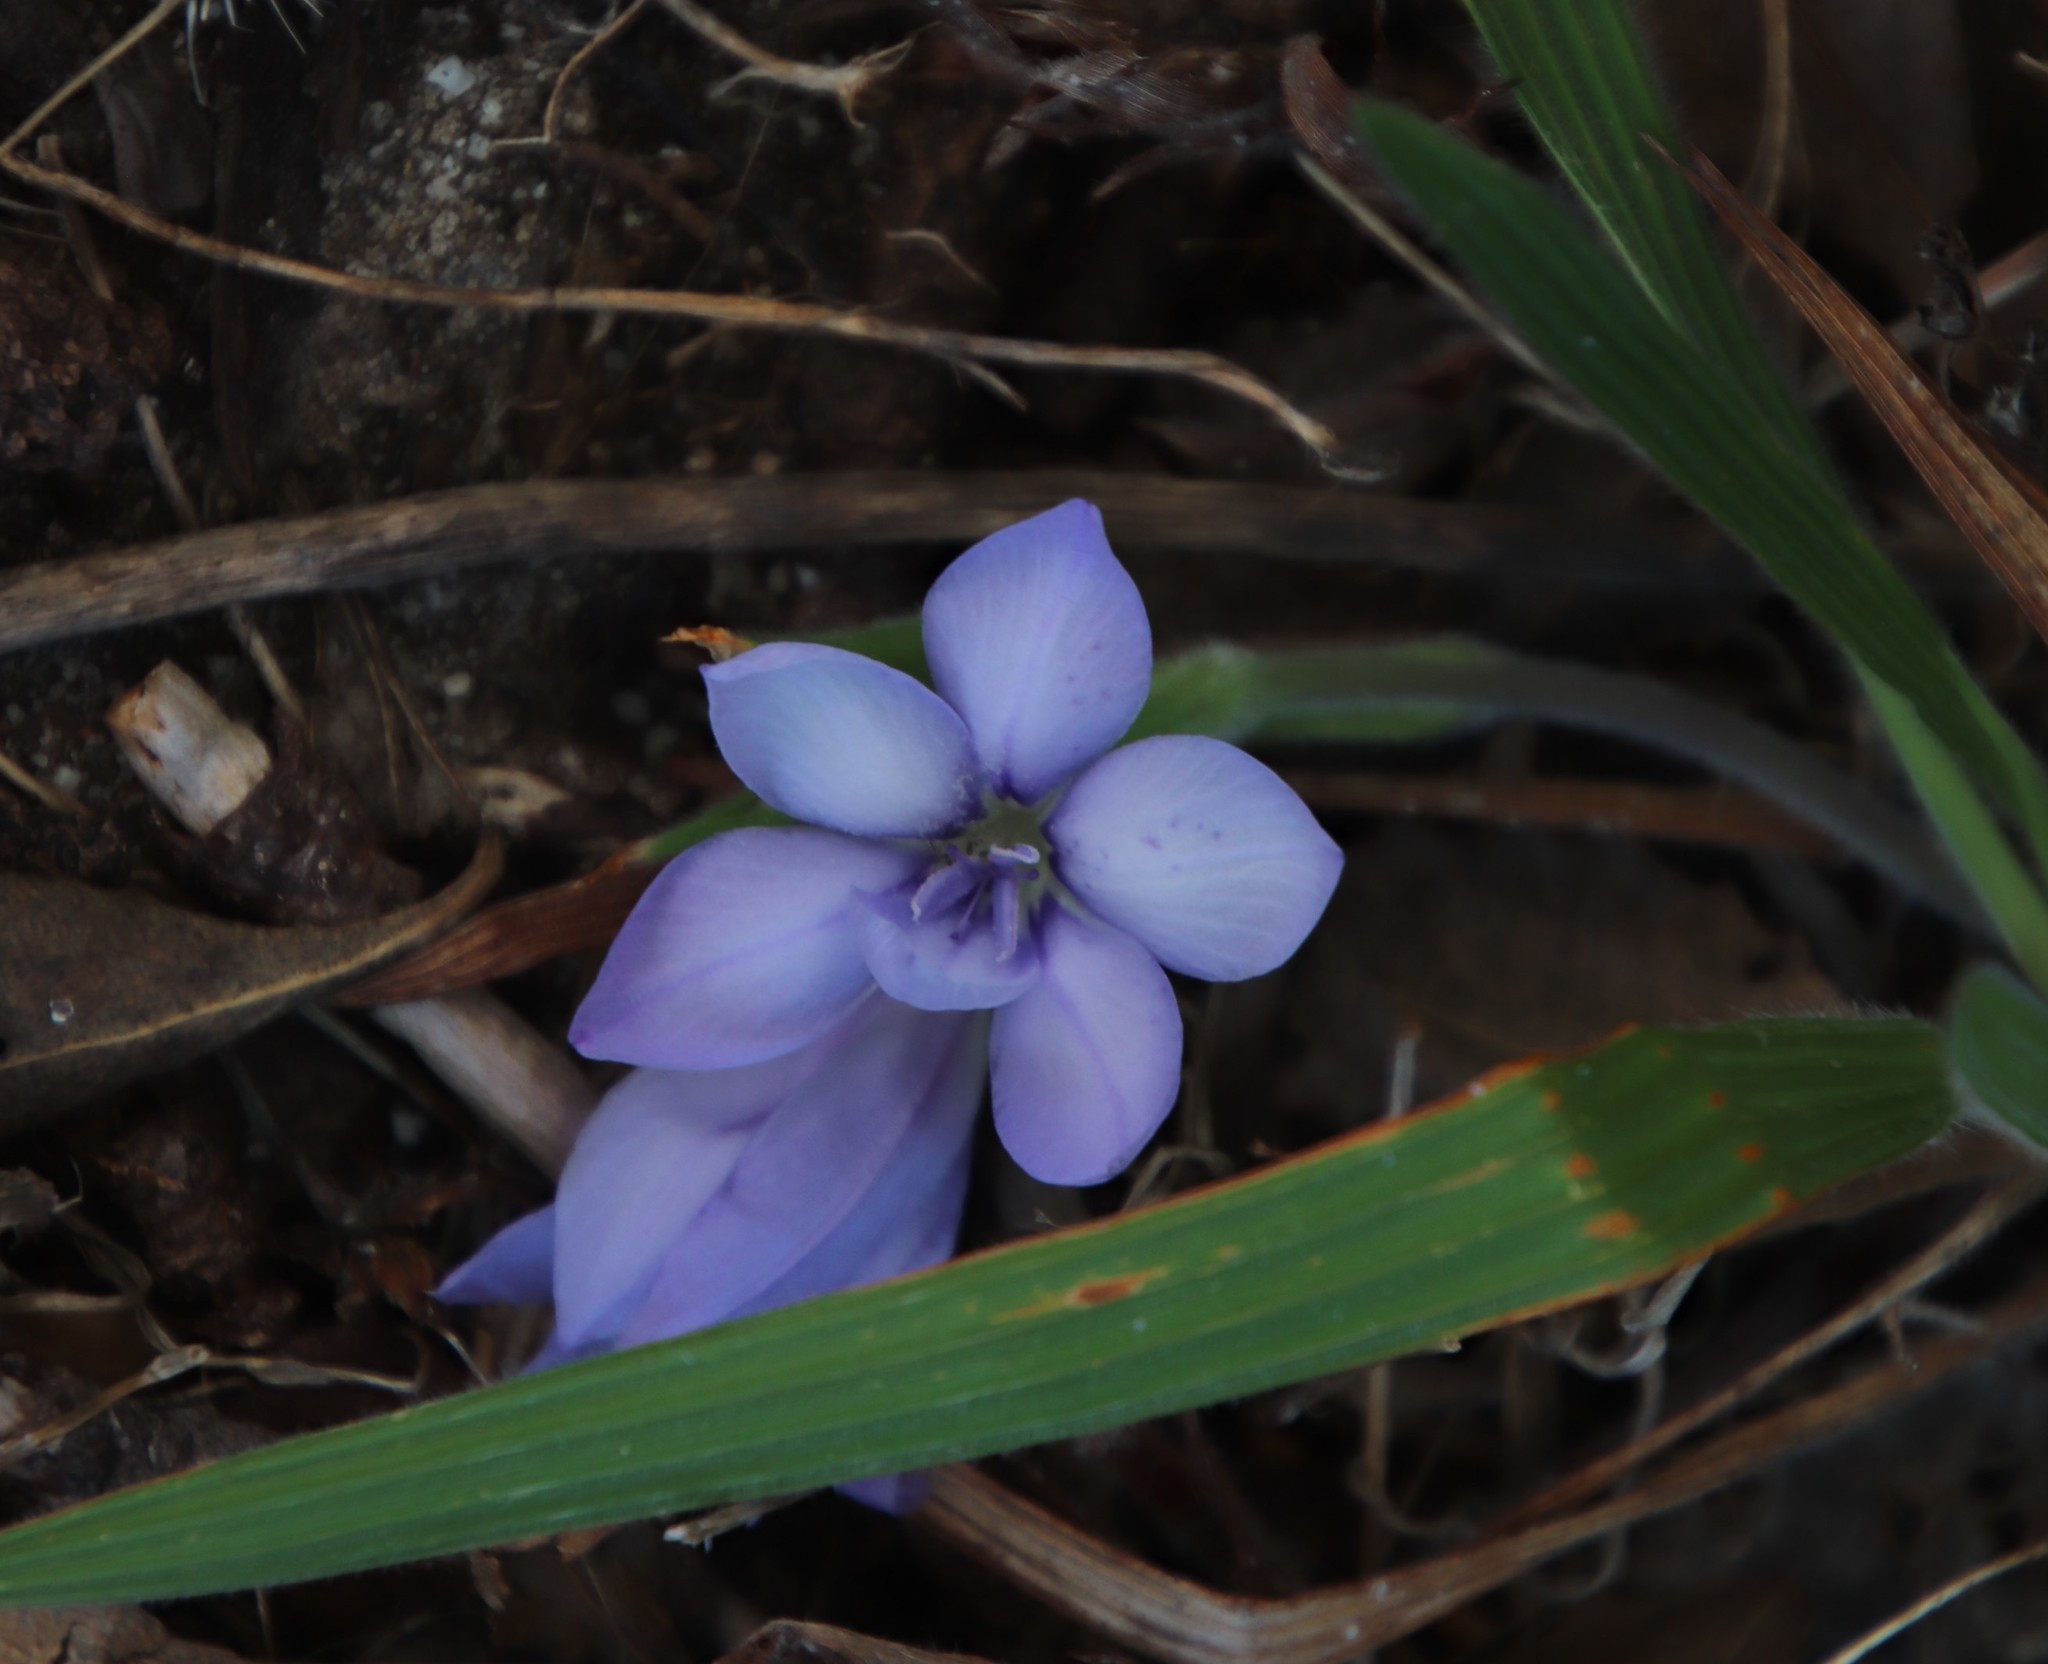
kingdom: Plantae
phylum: Tracheophyta
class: Liliopsida
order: Asparagales
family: Iridaceae
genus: Babiana
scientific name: Babiana villosula
